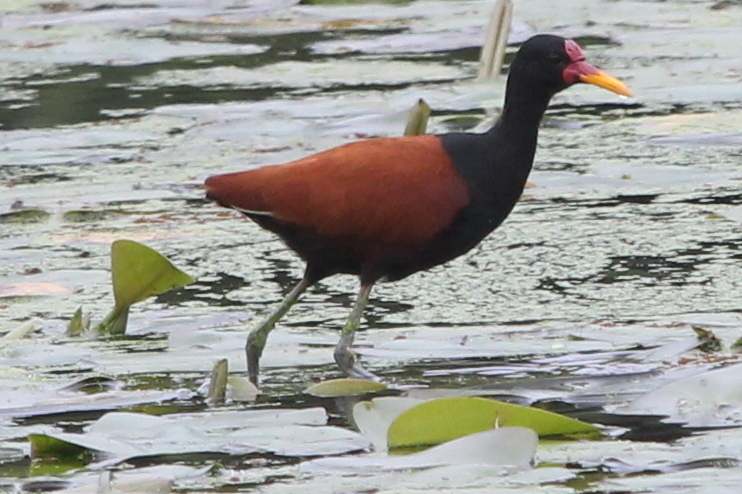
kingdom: Animalia
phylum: Chordata
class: Aves
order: Charadriiformes
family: Jacanidae
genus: Jacana
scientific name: Jacana jacana
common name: Wattled jacana
